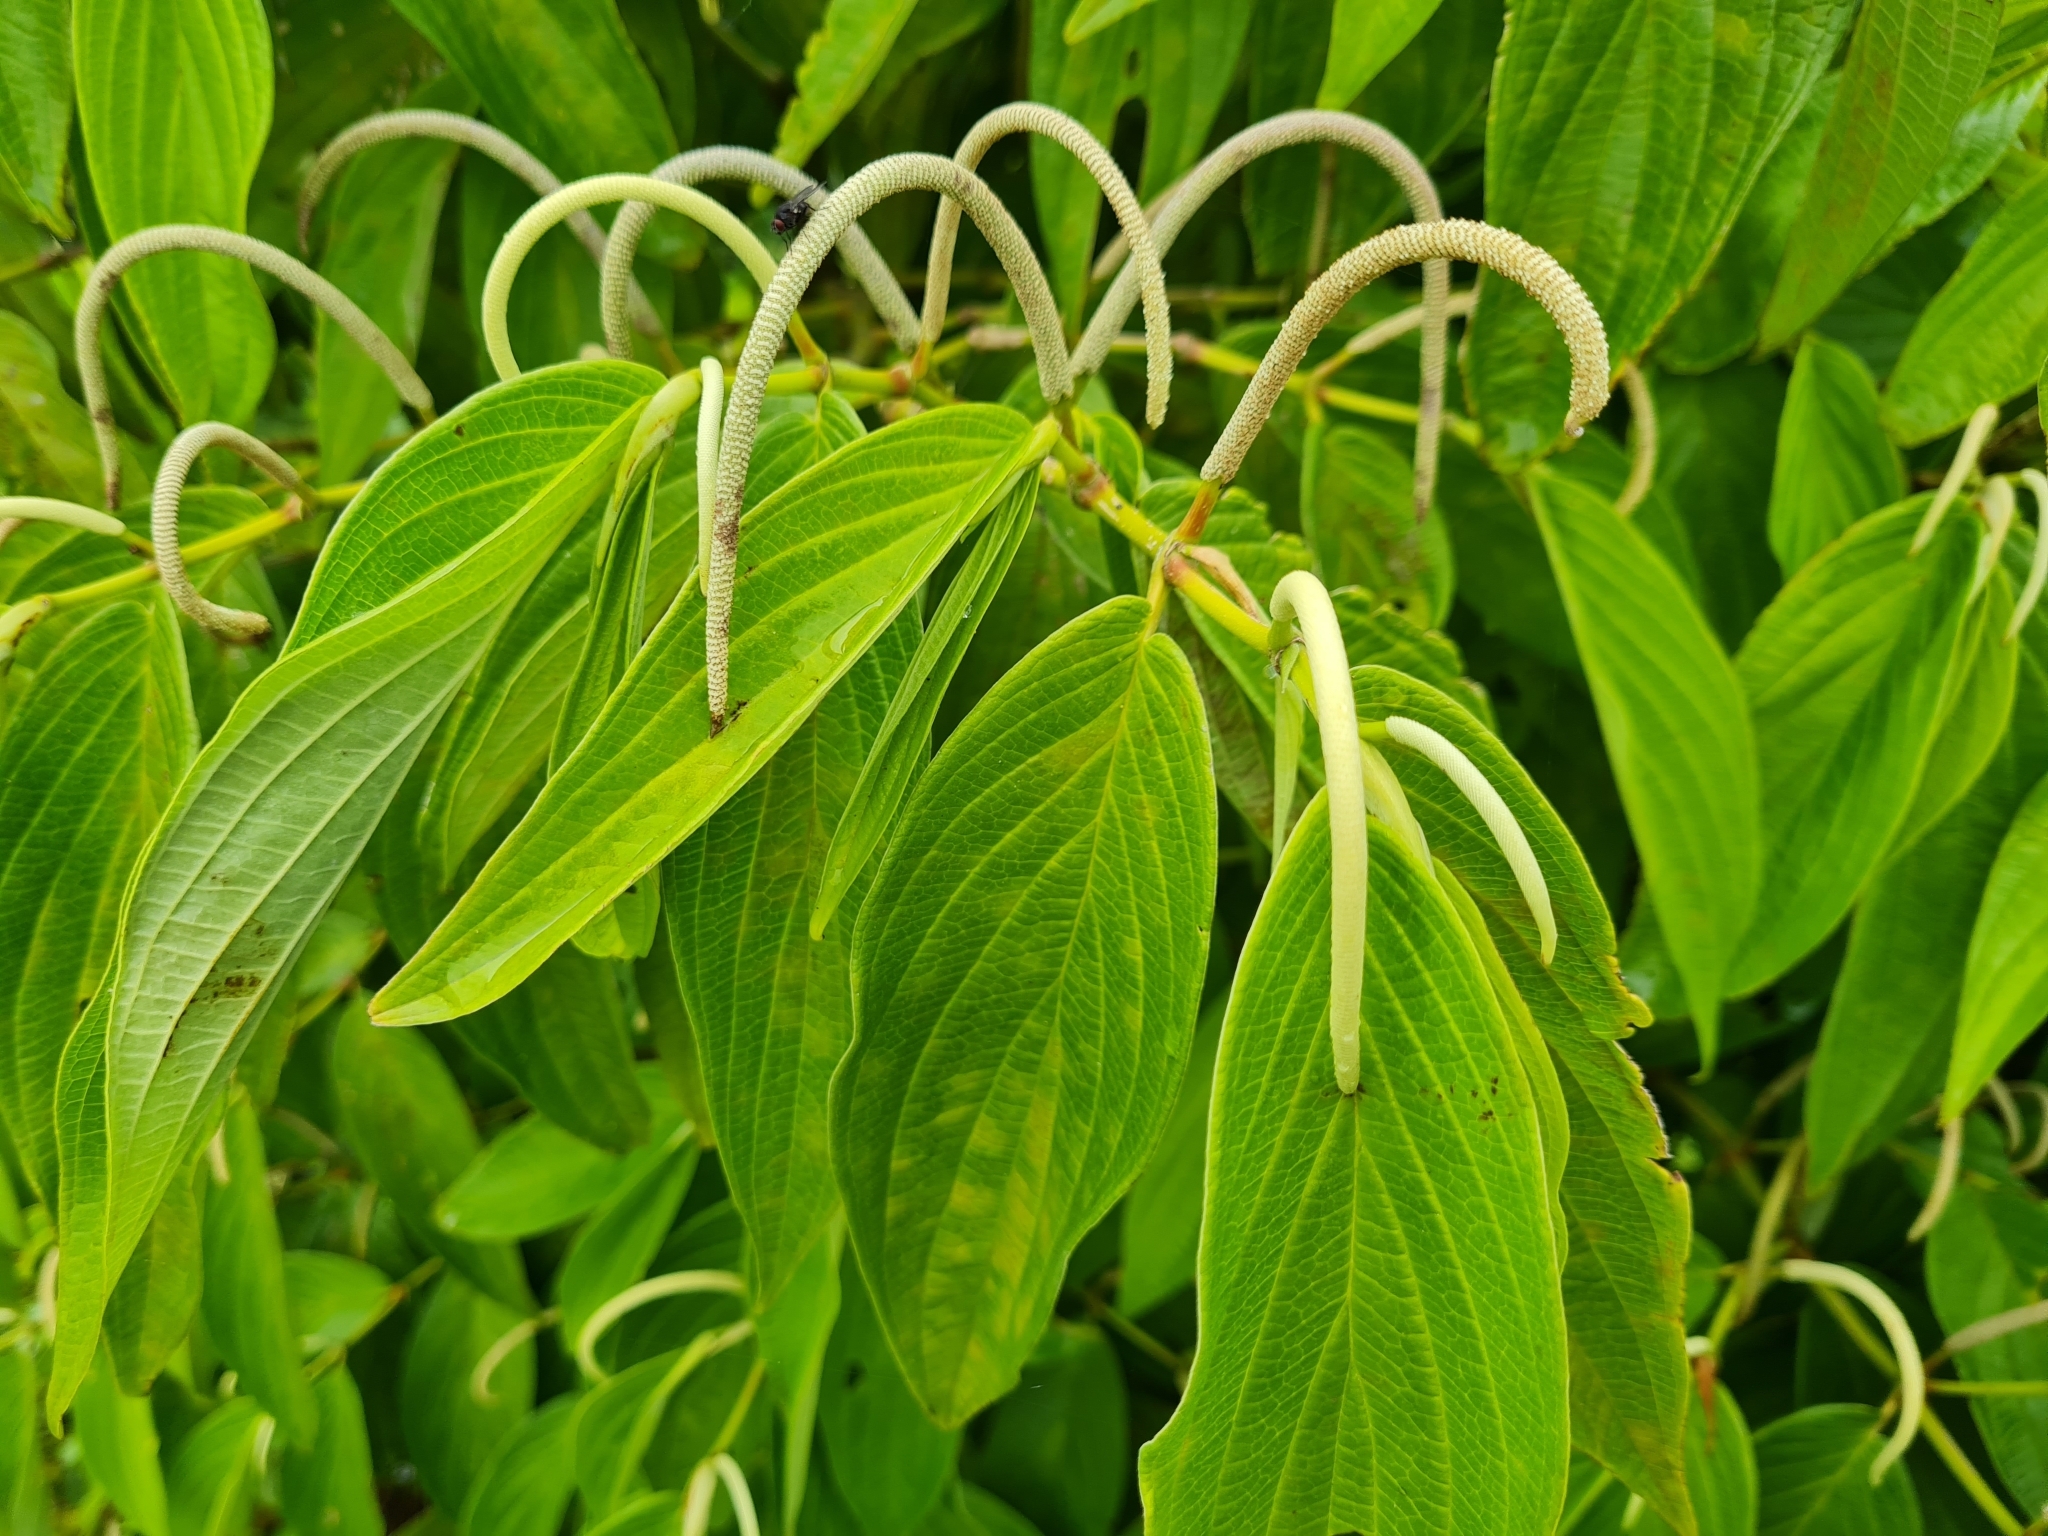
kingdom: Plantae
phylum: Tracheophyta
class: Magnoliopsida
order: Piperales
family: Piperaceae
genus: Piper
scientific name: Piper aduncum
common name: Spiked pepper
